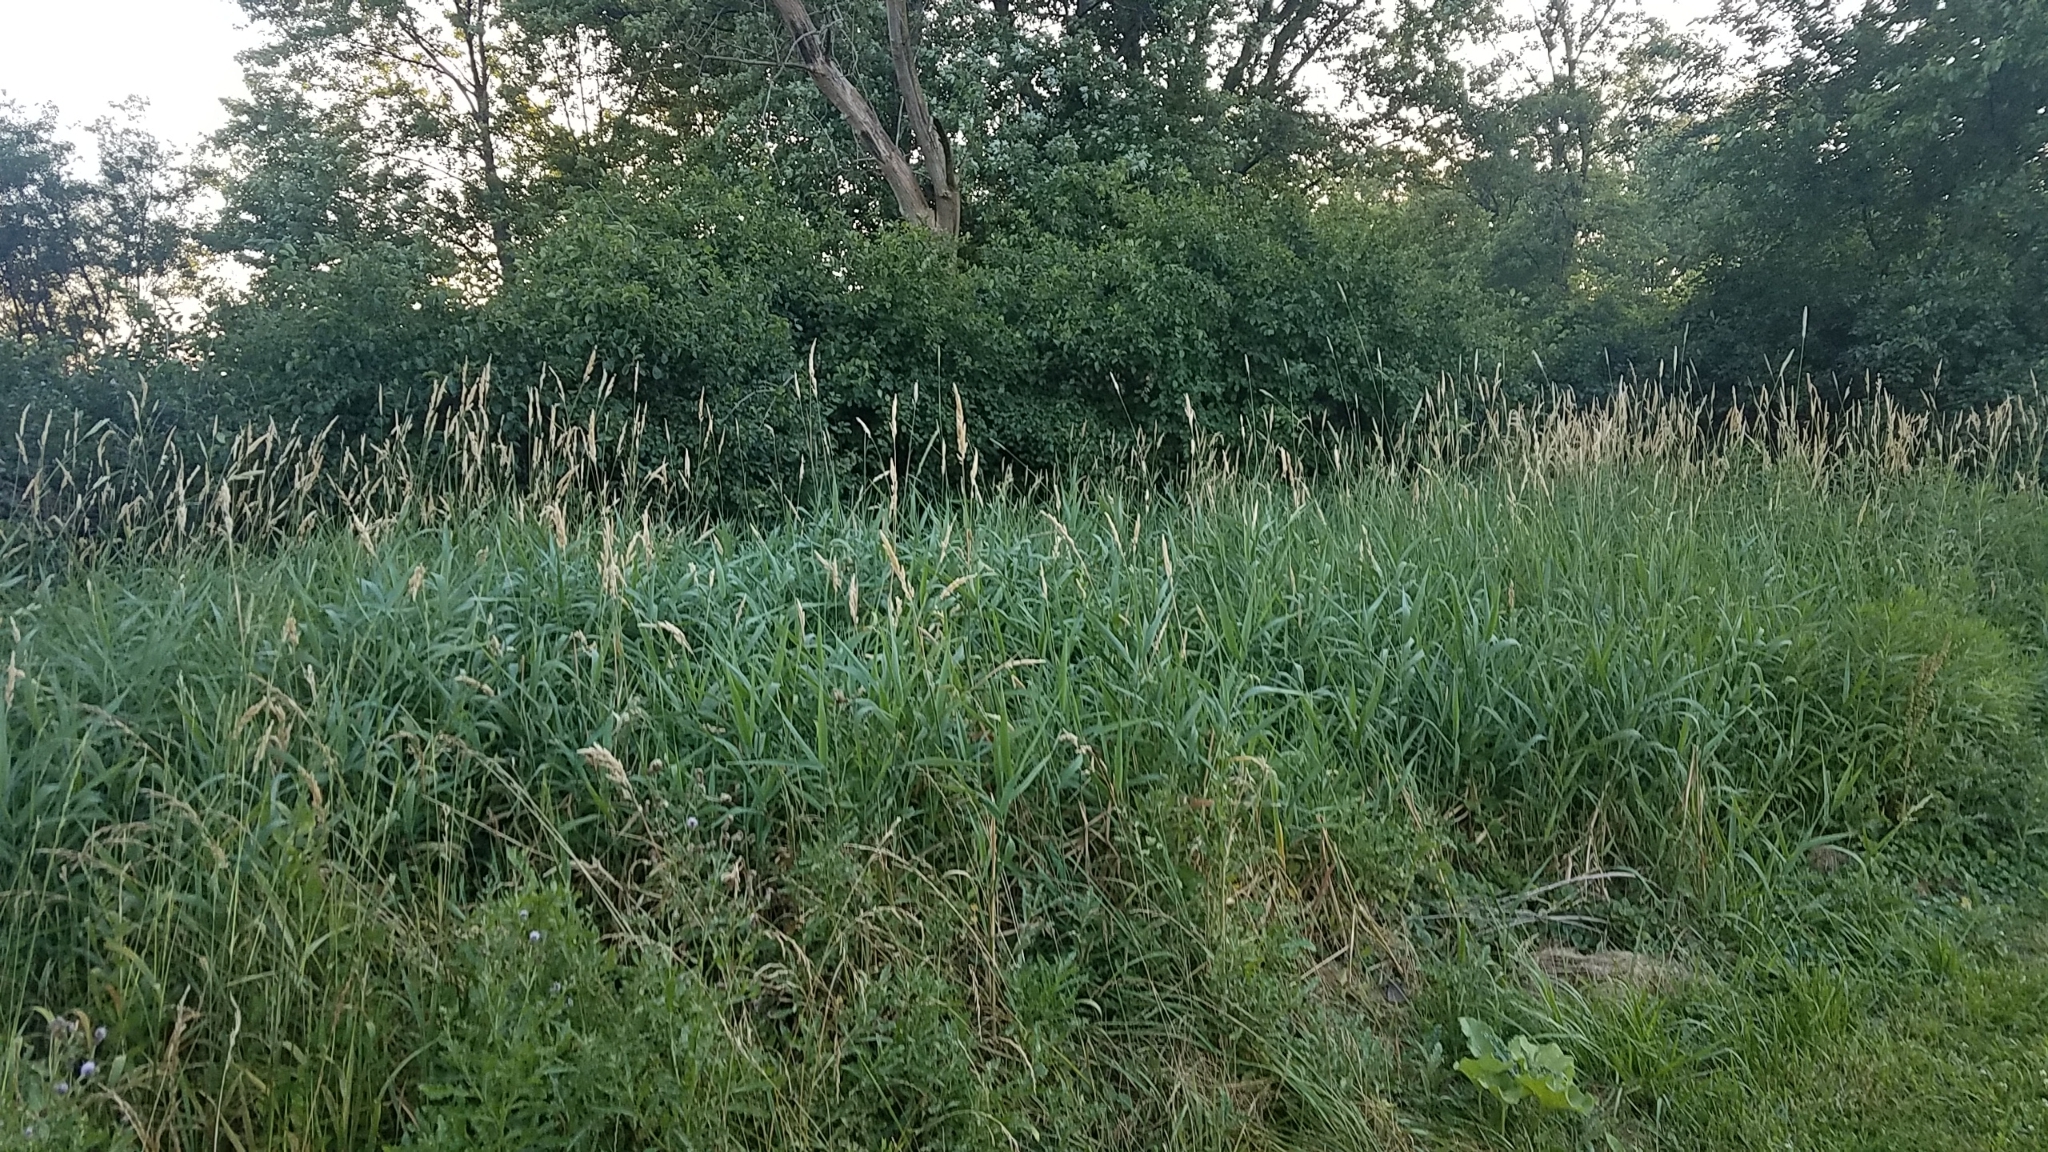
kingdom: Plantae
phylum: Tracheophyta
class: Liliopsida
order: Poales
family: Poaceae
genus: Phalaris
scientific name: Phalaris arundinacea
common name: Reed canary-grass
